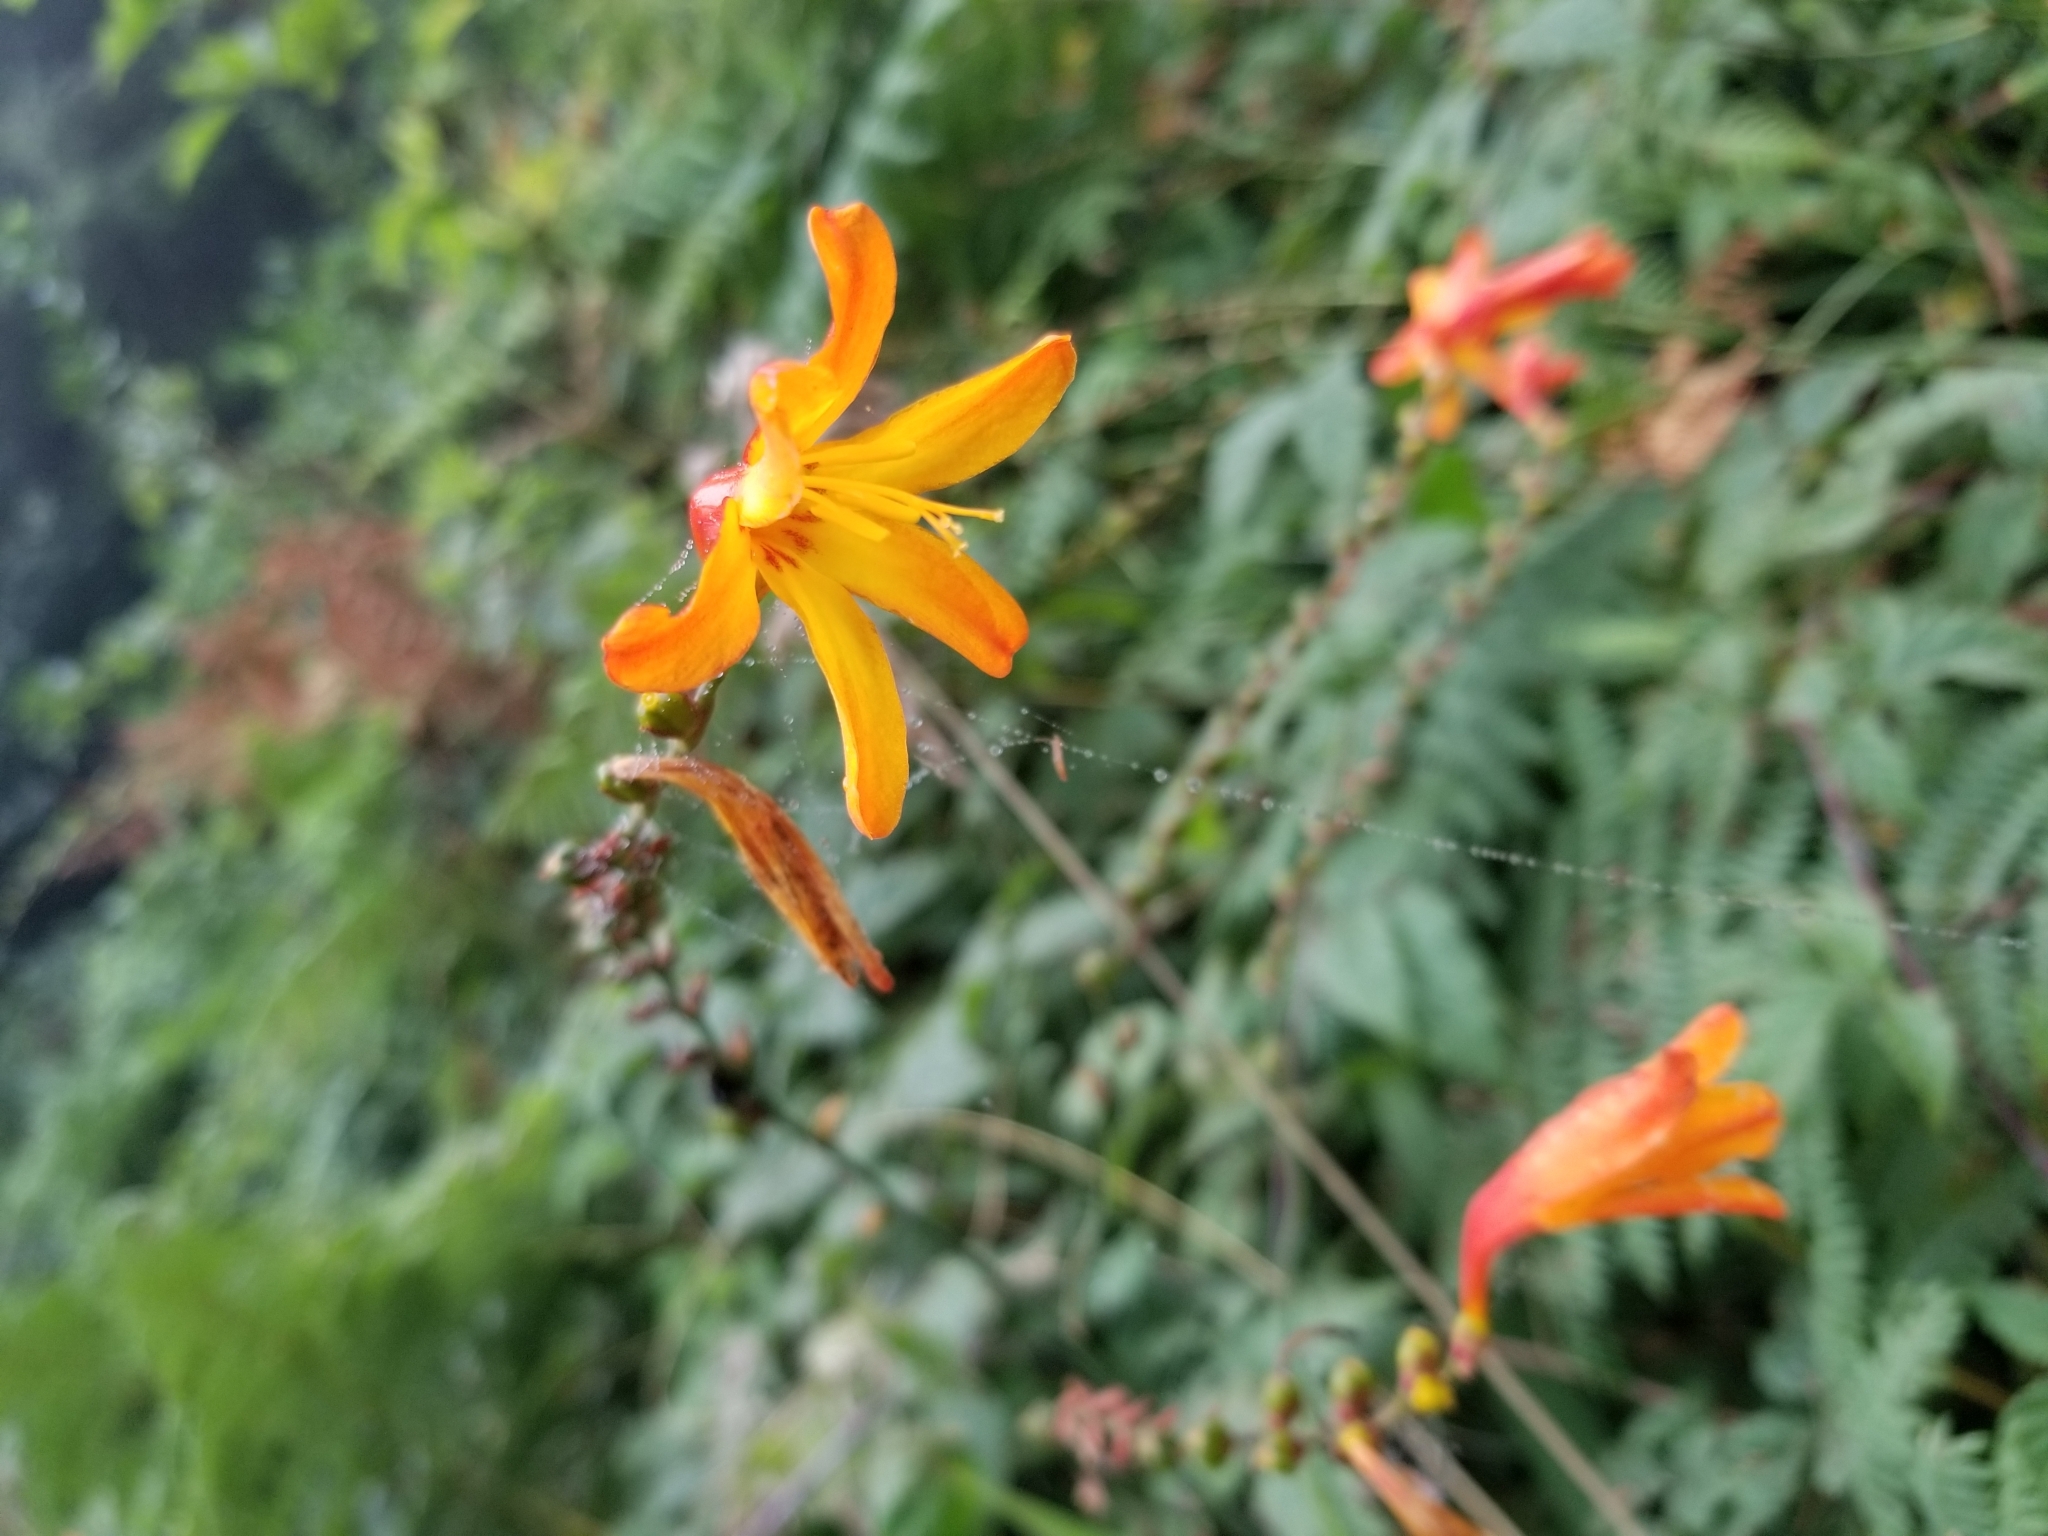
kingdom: Plantae
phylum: Tracheophyta
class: Liliopsida
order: Asparagales
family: Iridaceae
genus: Crocosmia
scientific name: Crocosmia crocosmiiflora
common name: Montbretia
